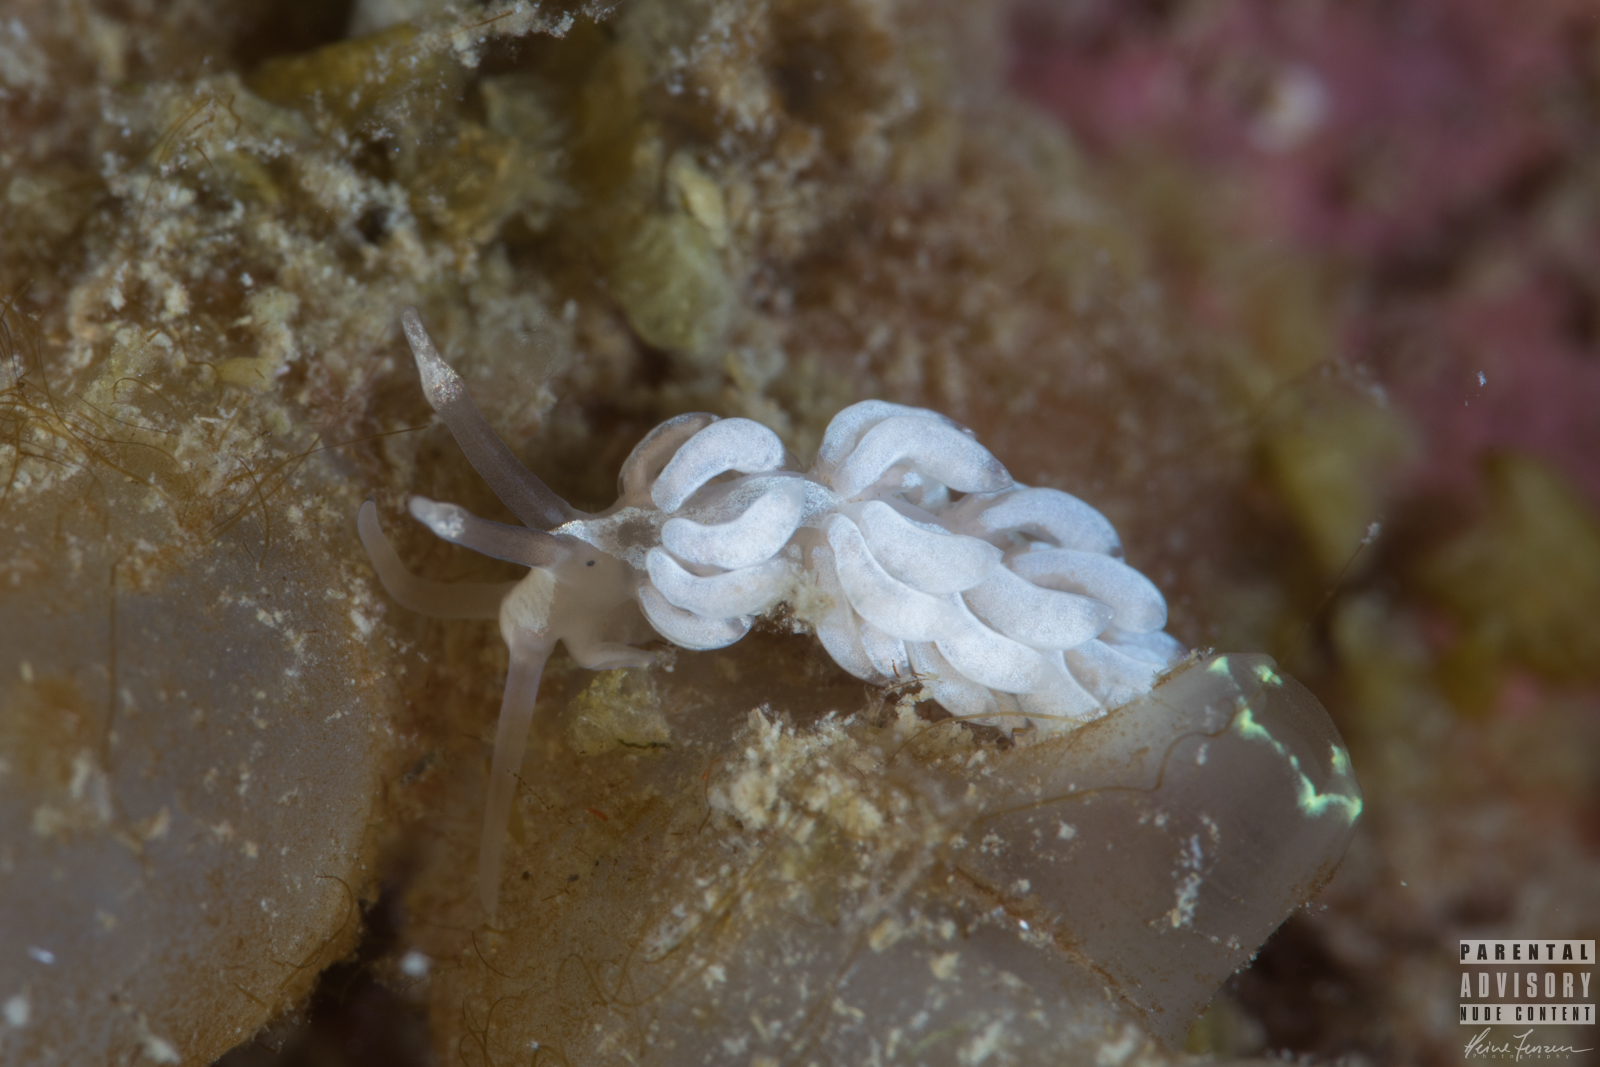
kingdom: Animalia
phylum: Mollusca
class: Gastropoda
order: Nudibranchia
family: Facelinidae
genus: Favorinus
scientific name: Favorinus branchialis
